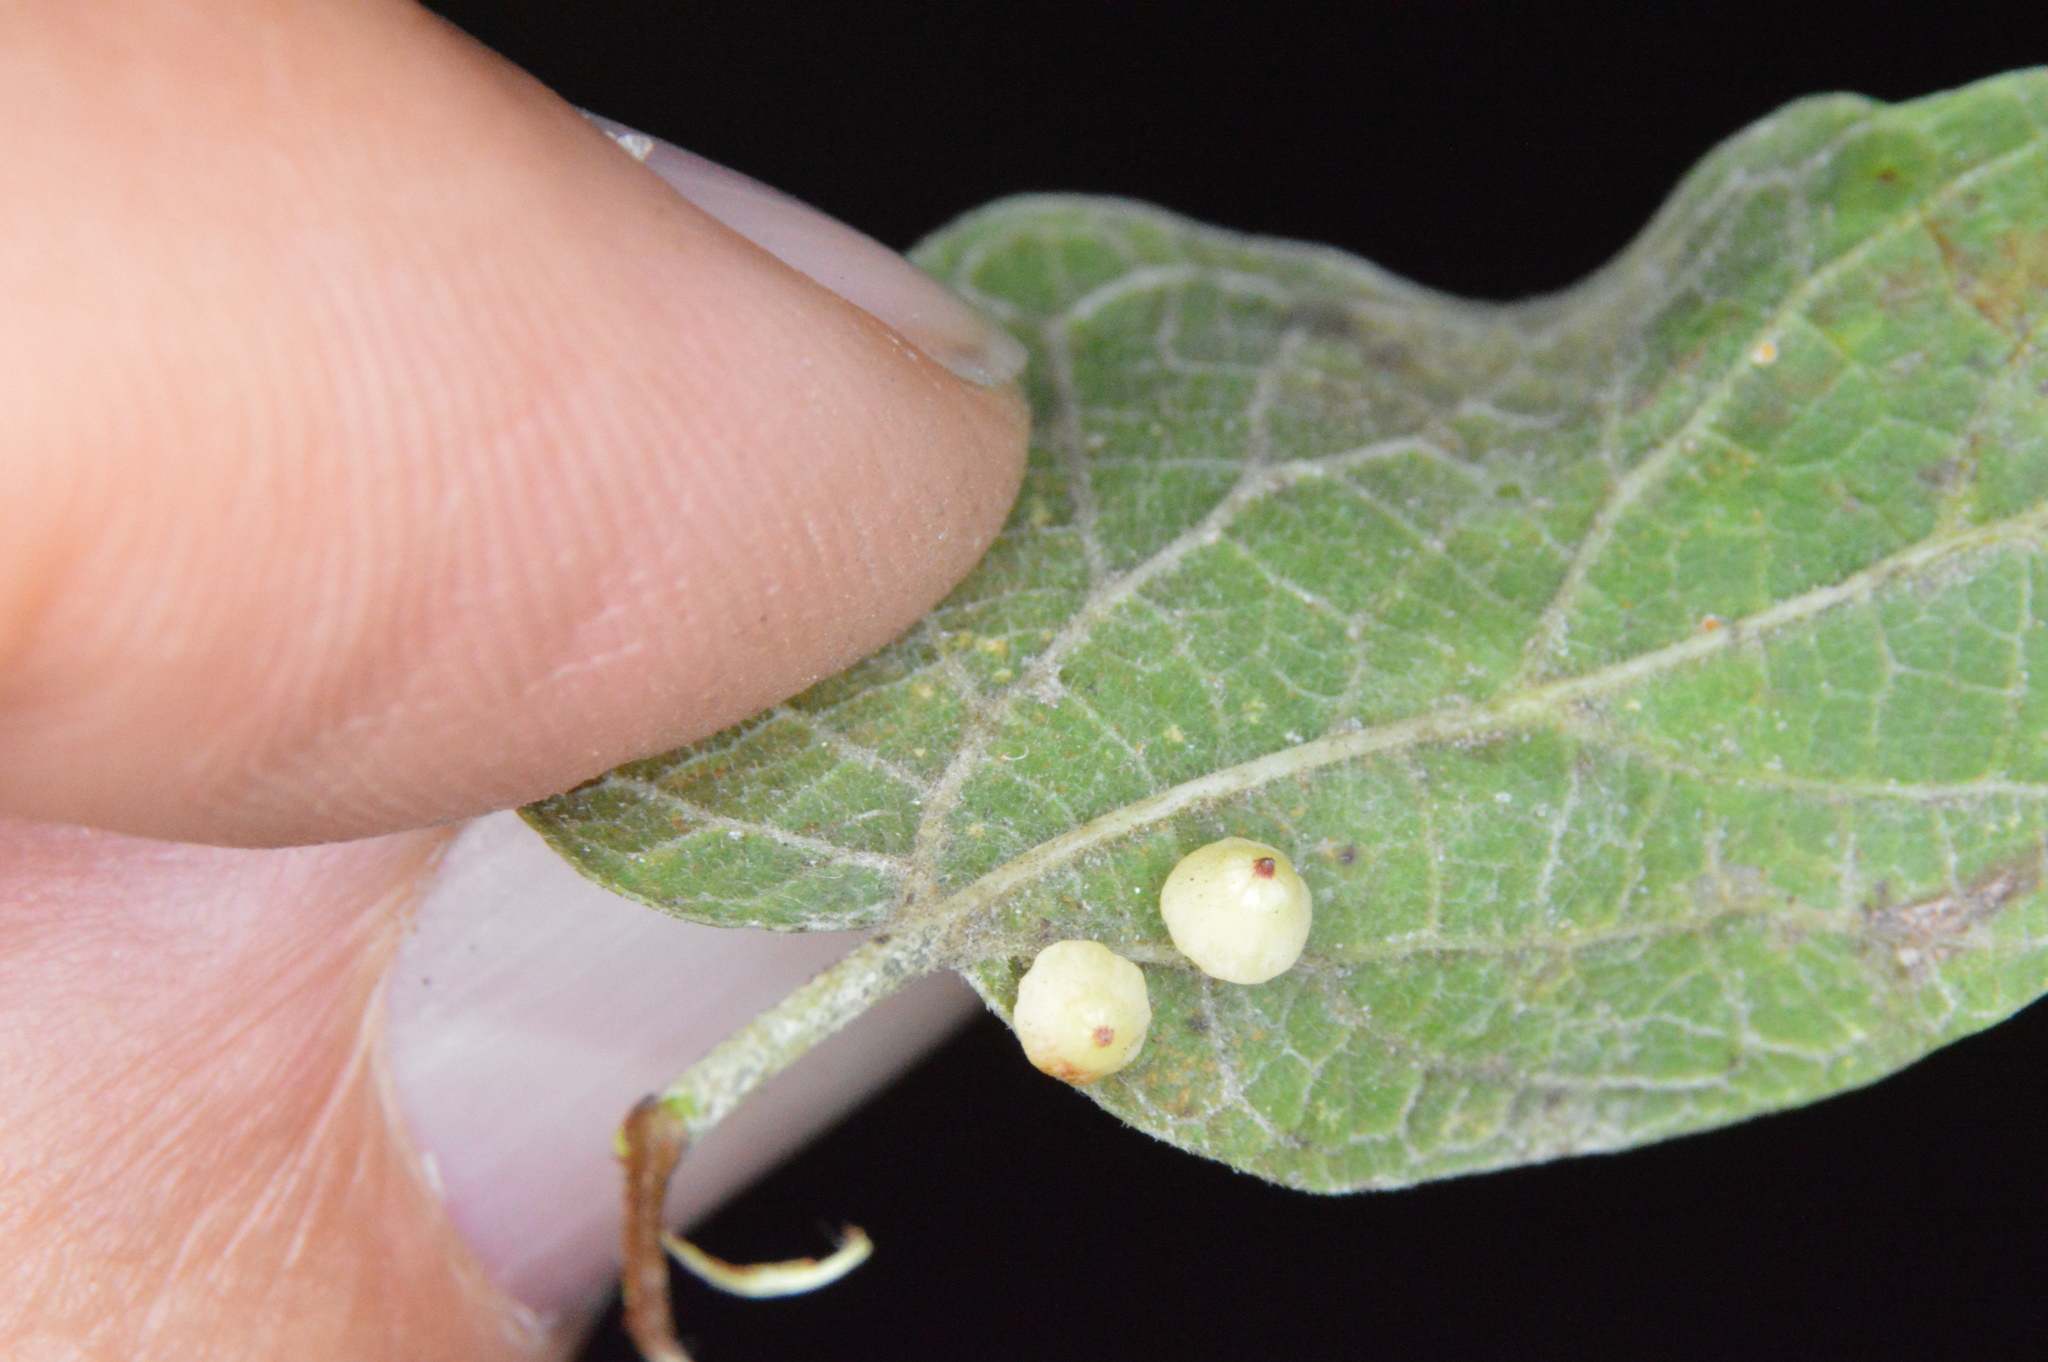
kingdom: Animalia
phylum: Arthropoda
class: Insecta
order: Diptera
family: Cecidomyiidae
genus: Celticecis
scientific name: Celticecis globosa
